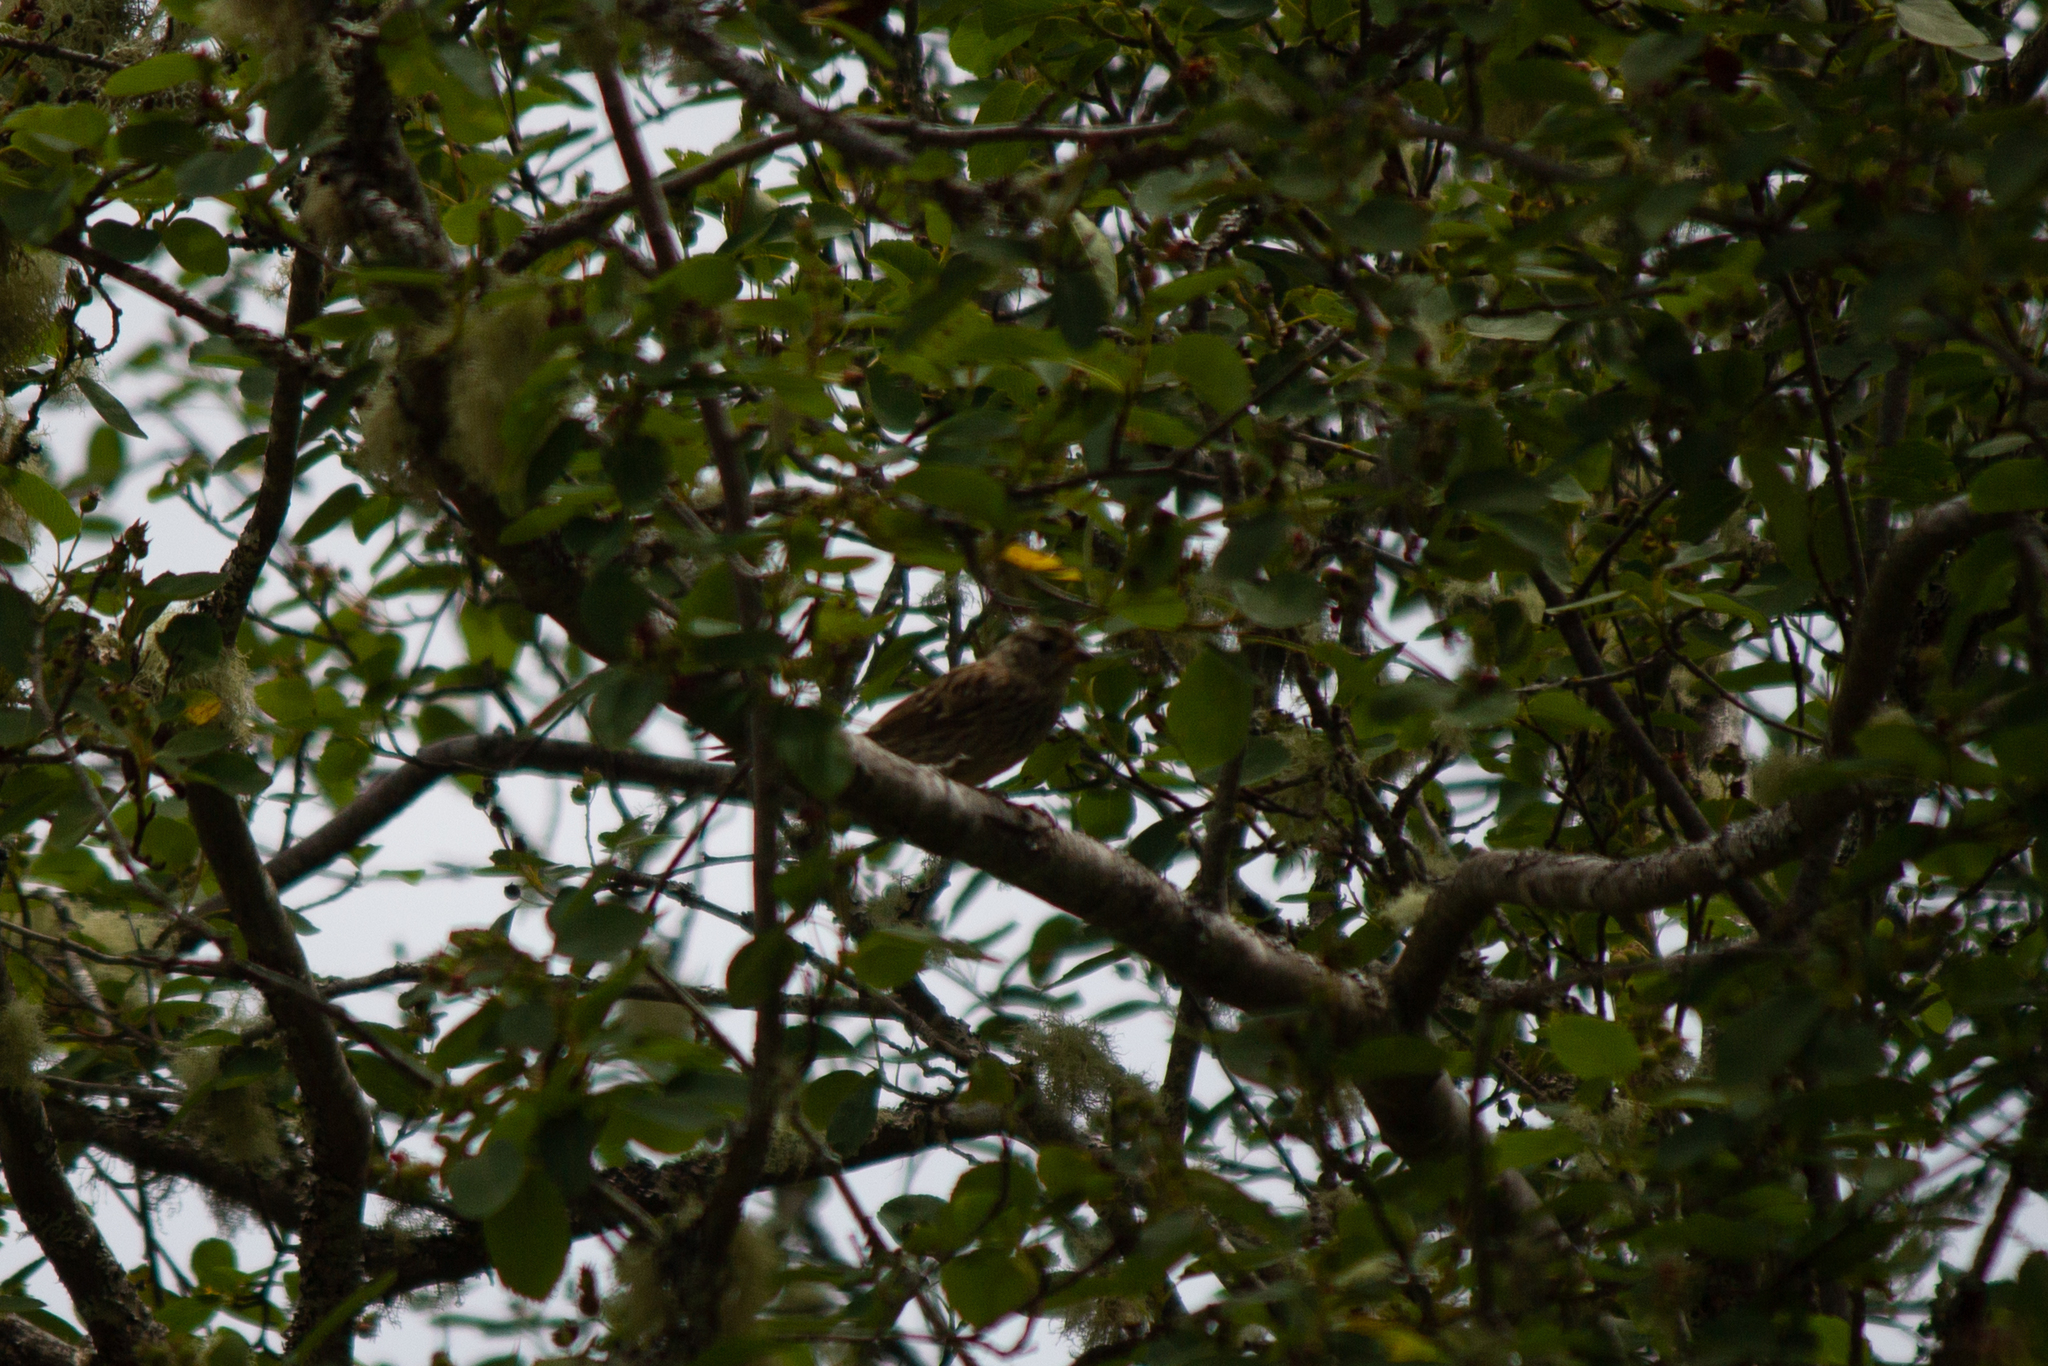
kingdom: Animalia
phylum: Chordata
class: Aves
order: Passeriformes
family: Passerellidae
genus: Zonotrichia
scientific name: Zonotrichia leucophrys
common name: White-crowned sparrow
